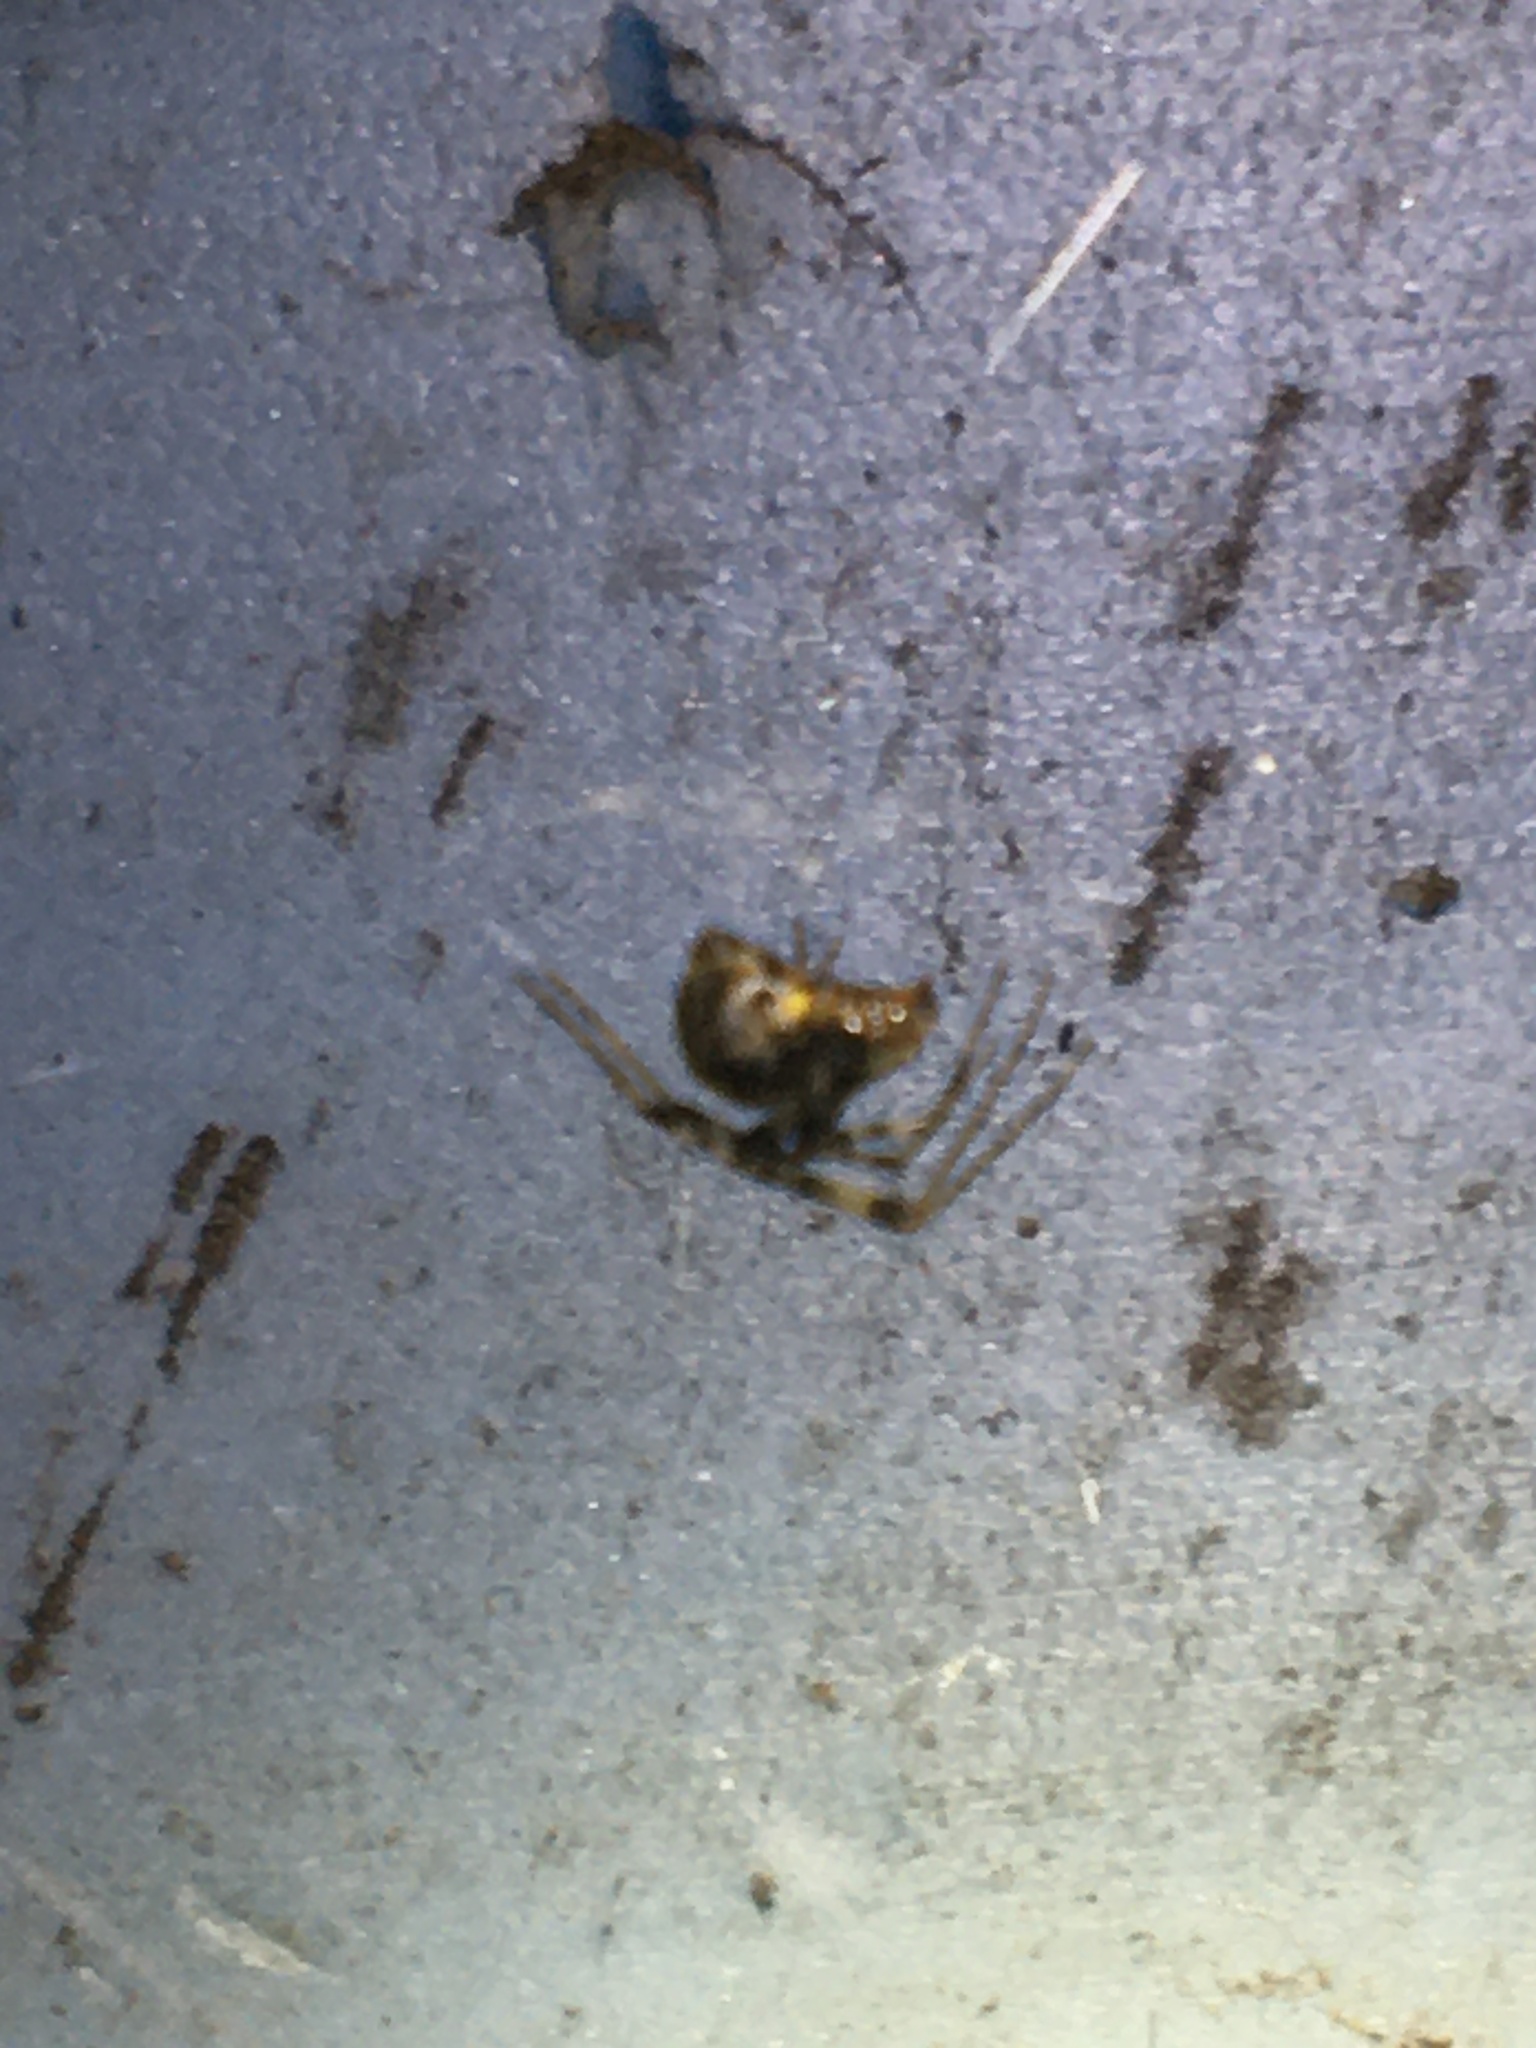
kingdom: Animalia
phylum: Arthropoda
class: Arachnida
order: Araneae
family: Theridiidae
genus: Parasteatoda
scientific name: Parasteatoda tepidariorum
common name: Common house spider
